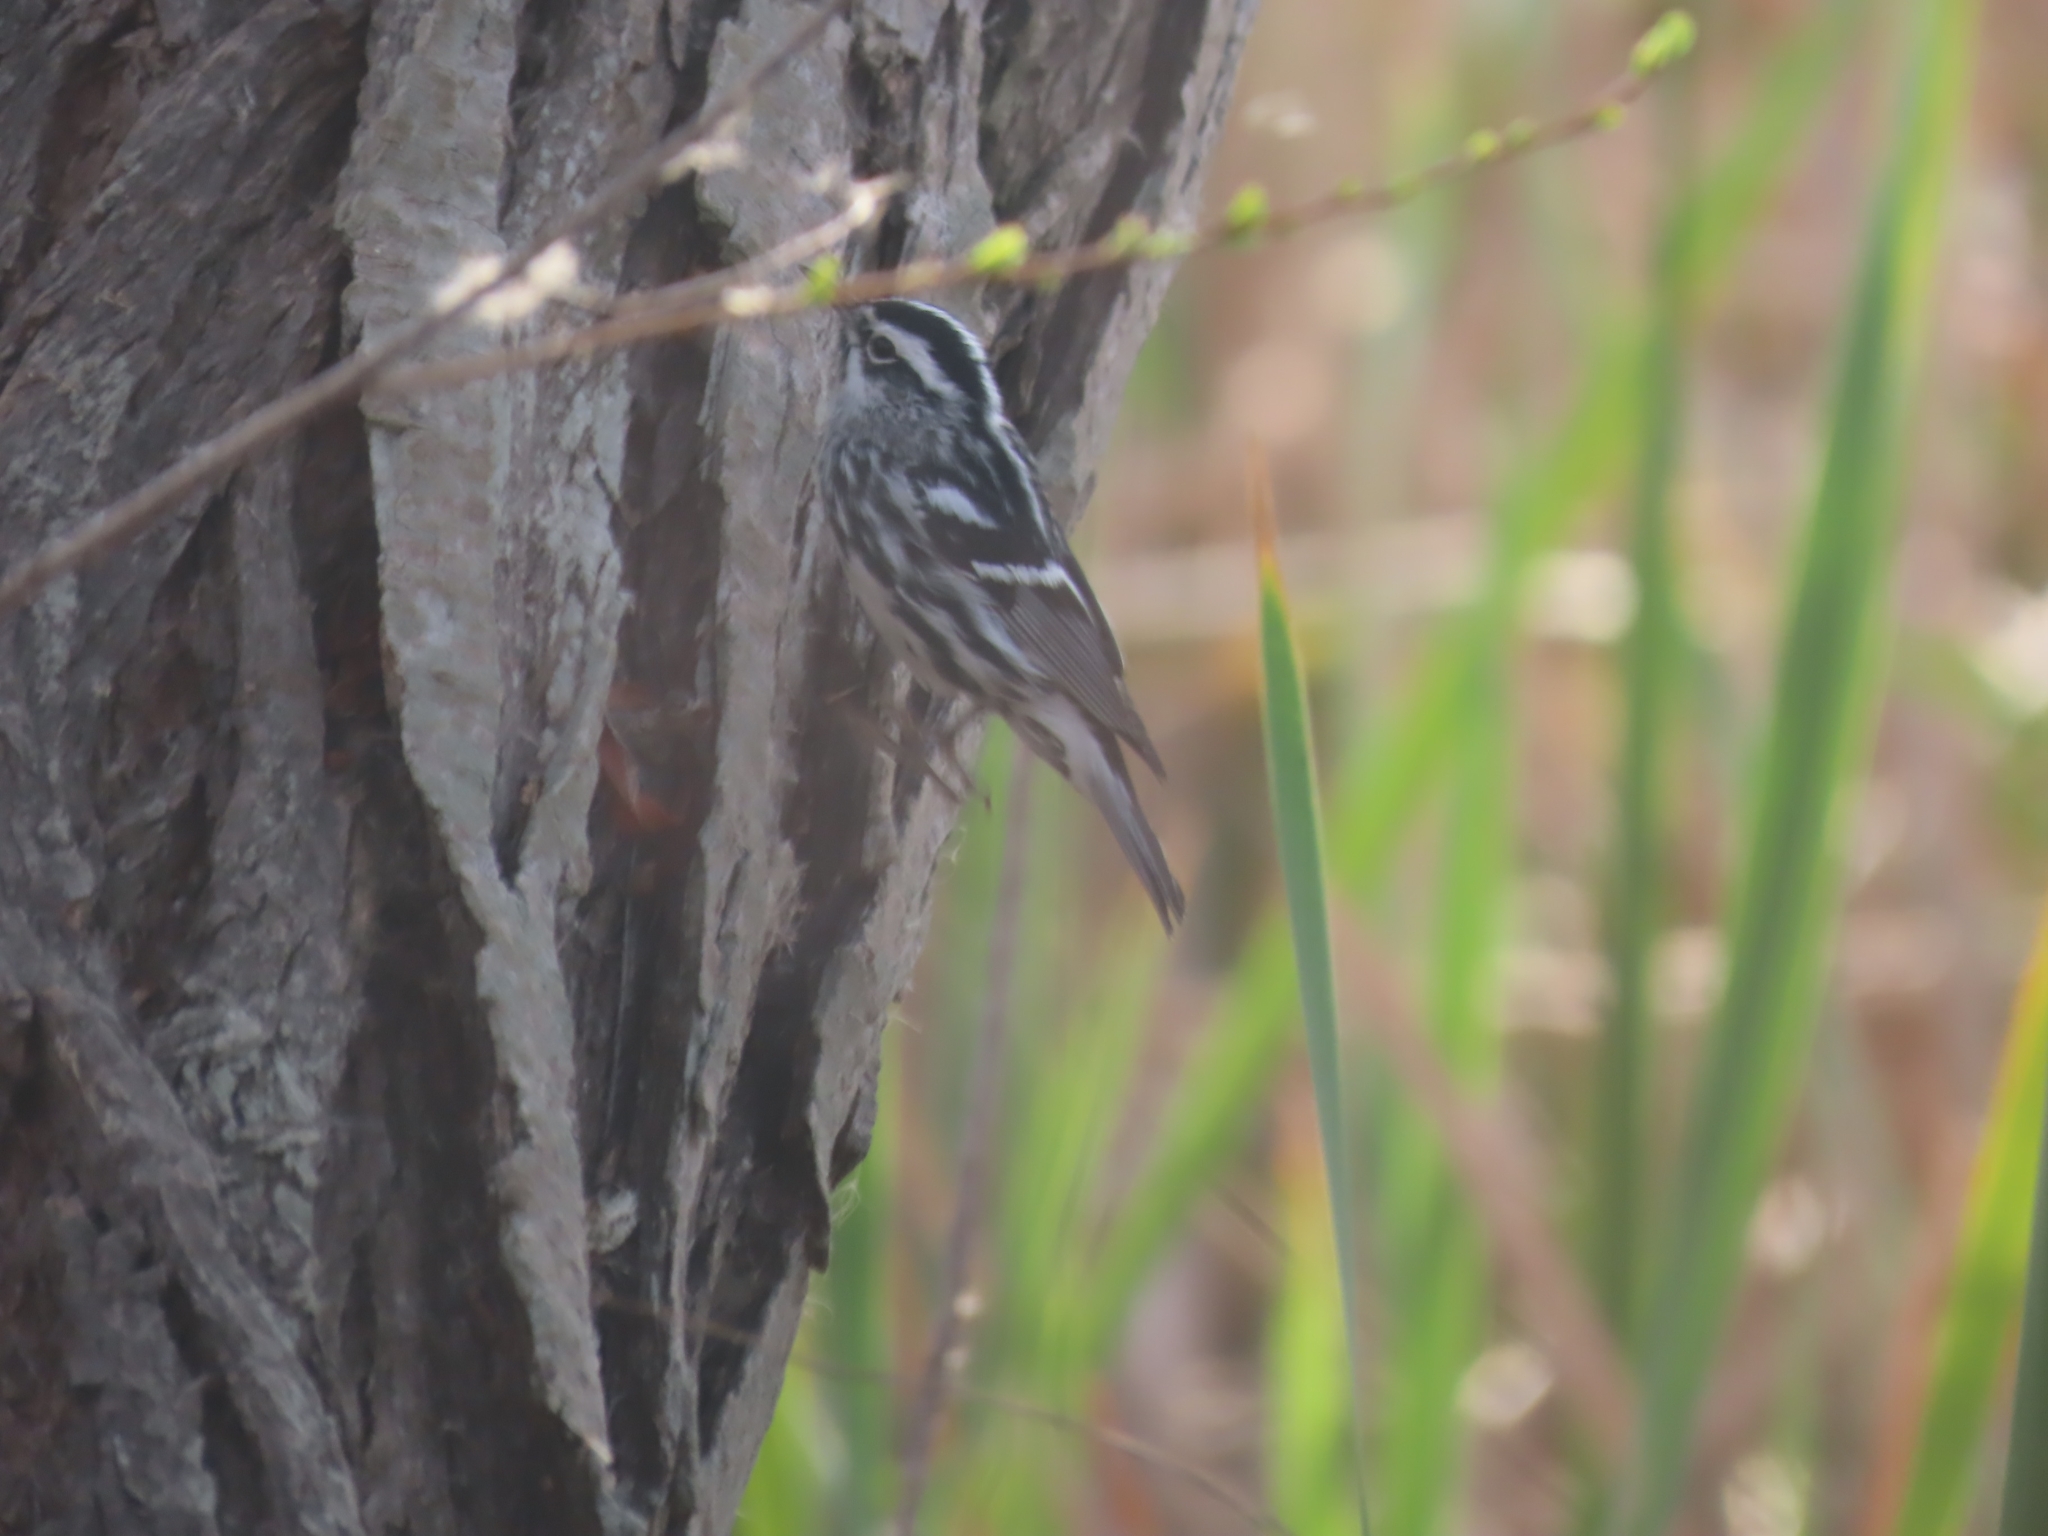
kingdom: Animalia
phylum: Chordata
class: Aves
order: Passeriformes
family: Parulidae
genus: Mniotilta
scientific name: Mniotilta varia
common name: Black-and-white warbler
